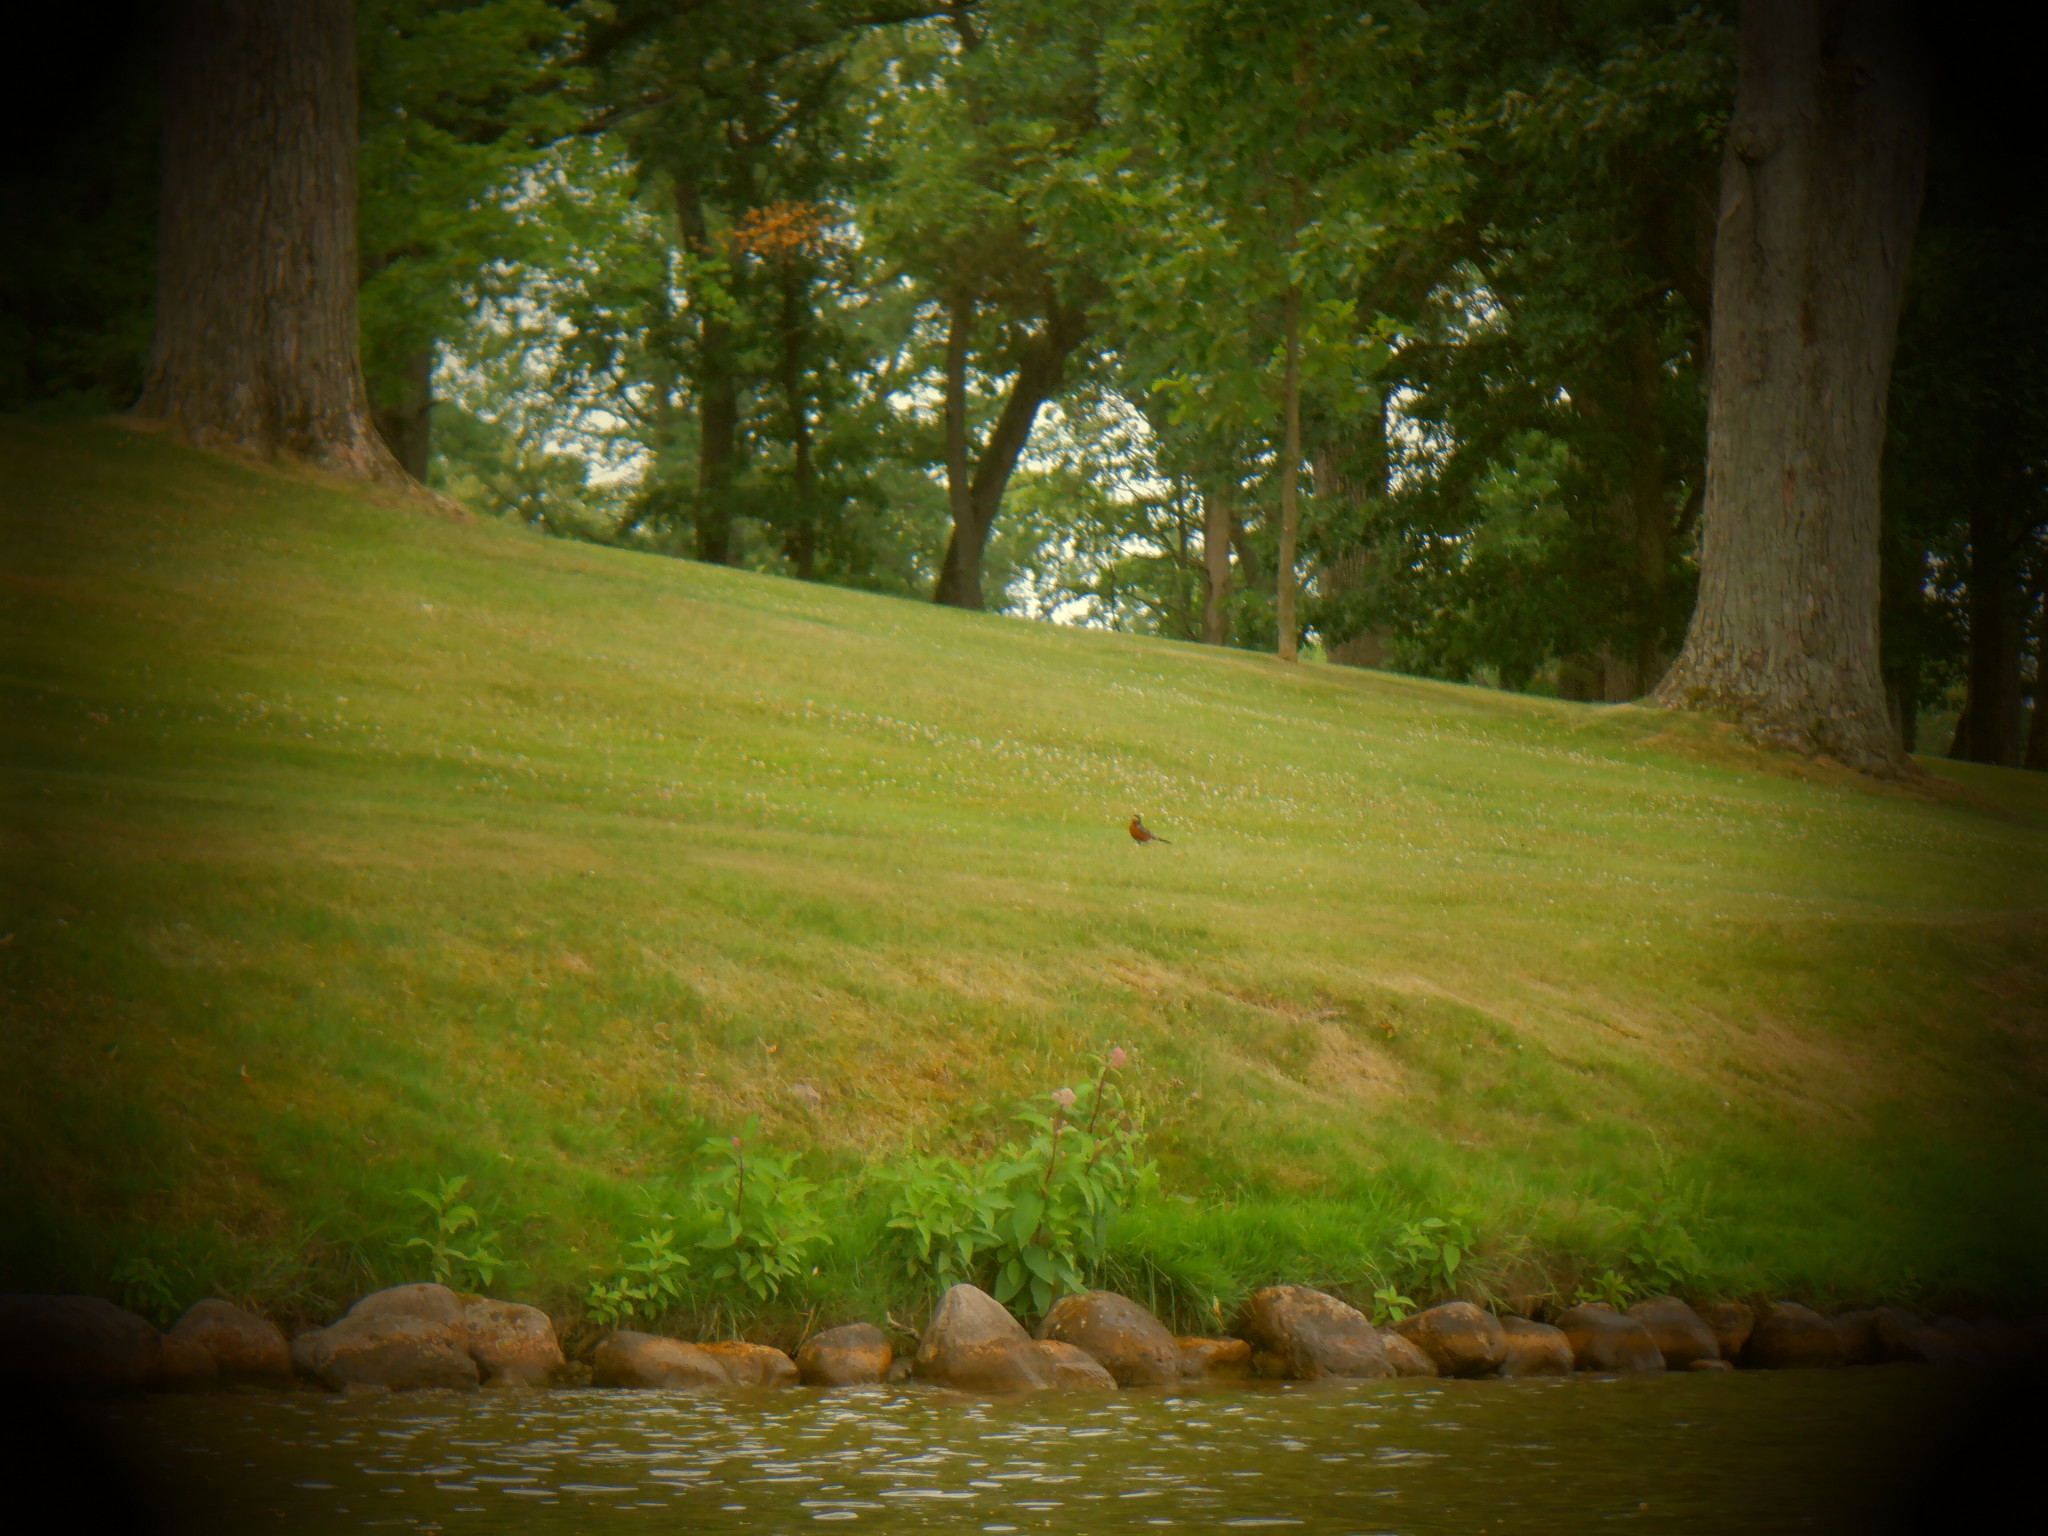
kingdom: Animalia
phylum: Chordata
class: Aves
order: Passeriformes
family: Turdidae
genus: Turdus
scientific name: Turdus migratorius
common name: American robin
